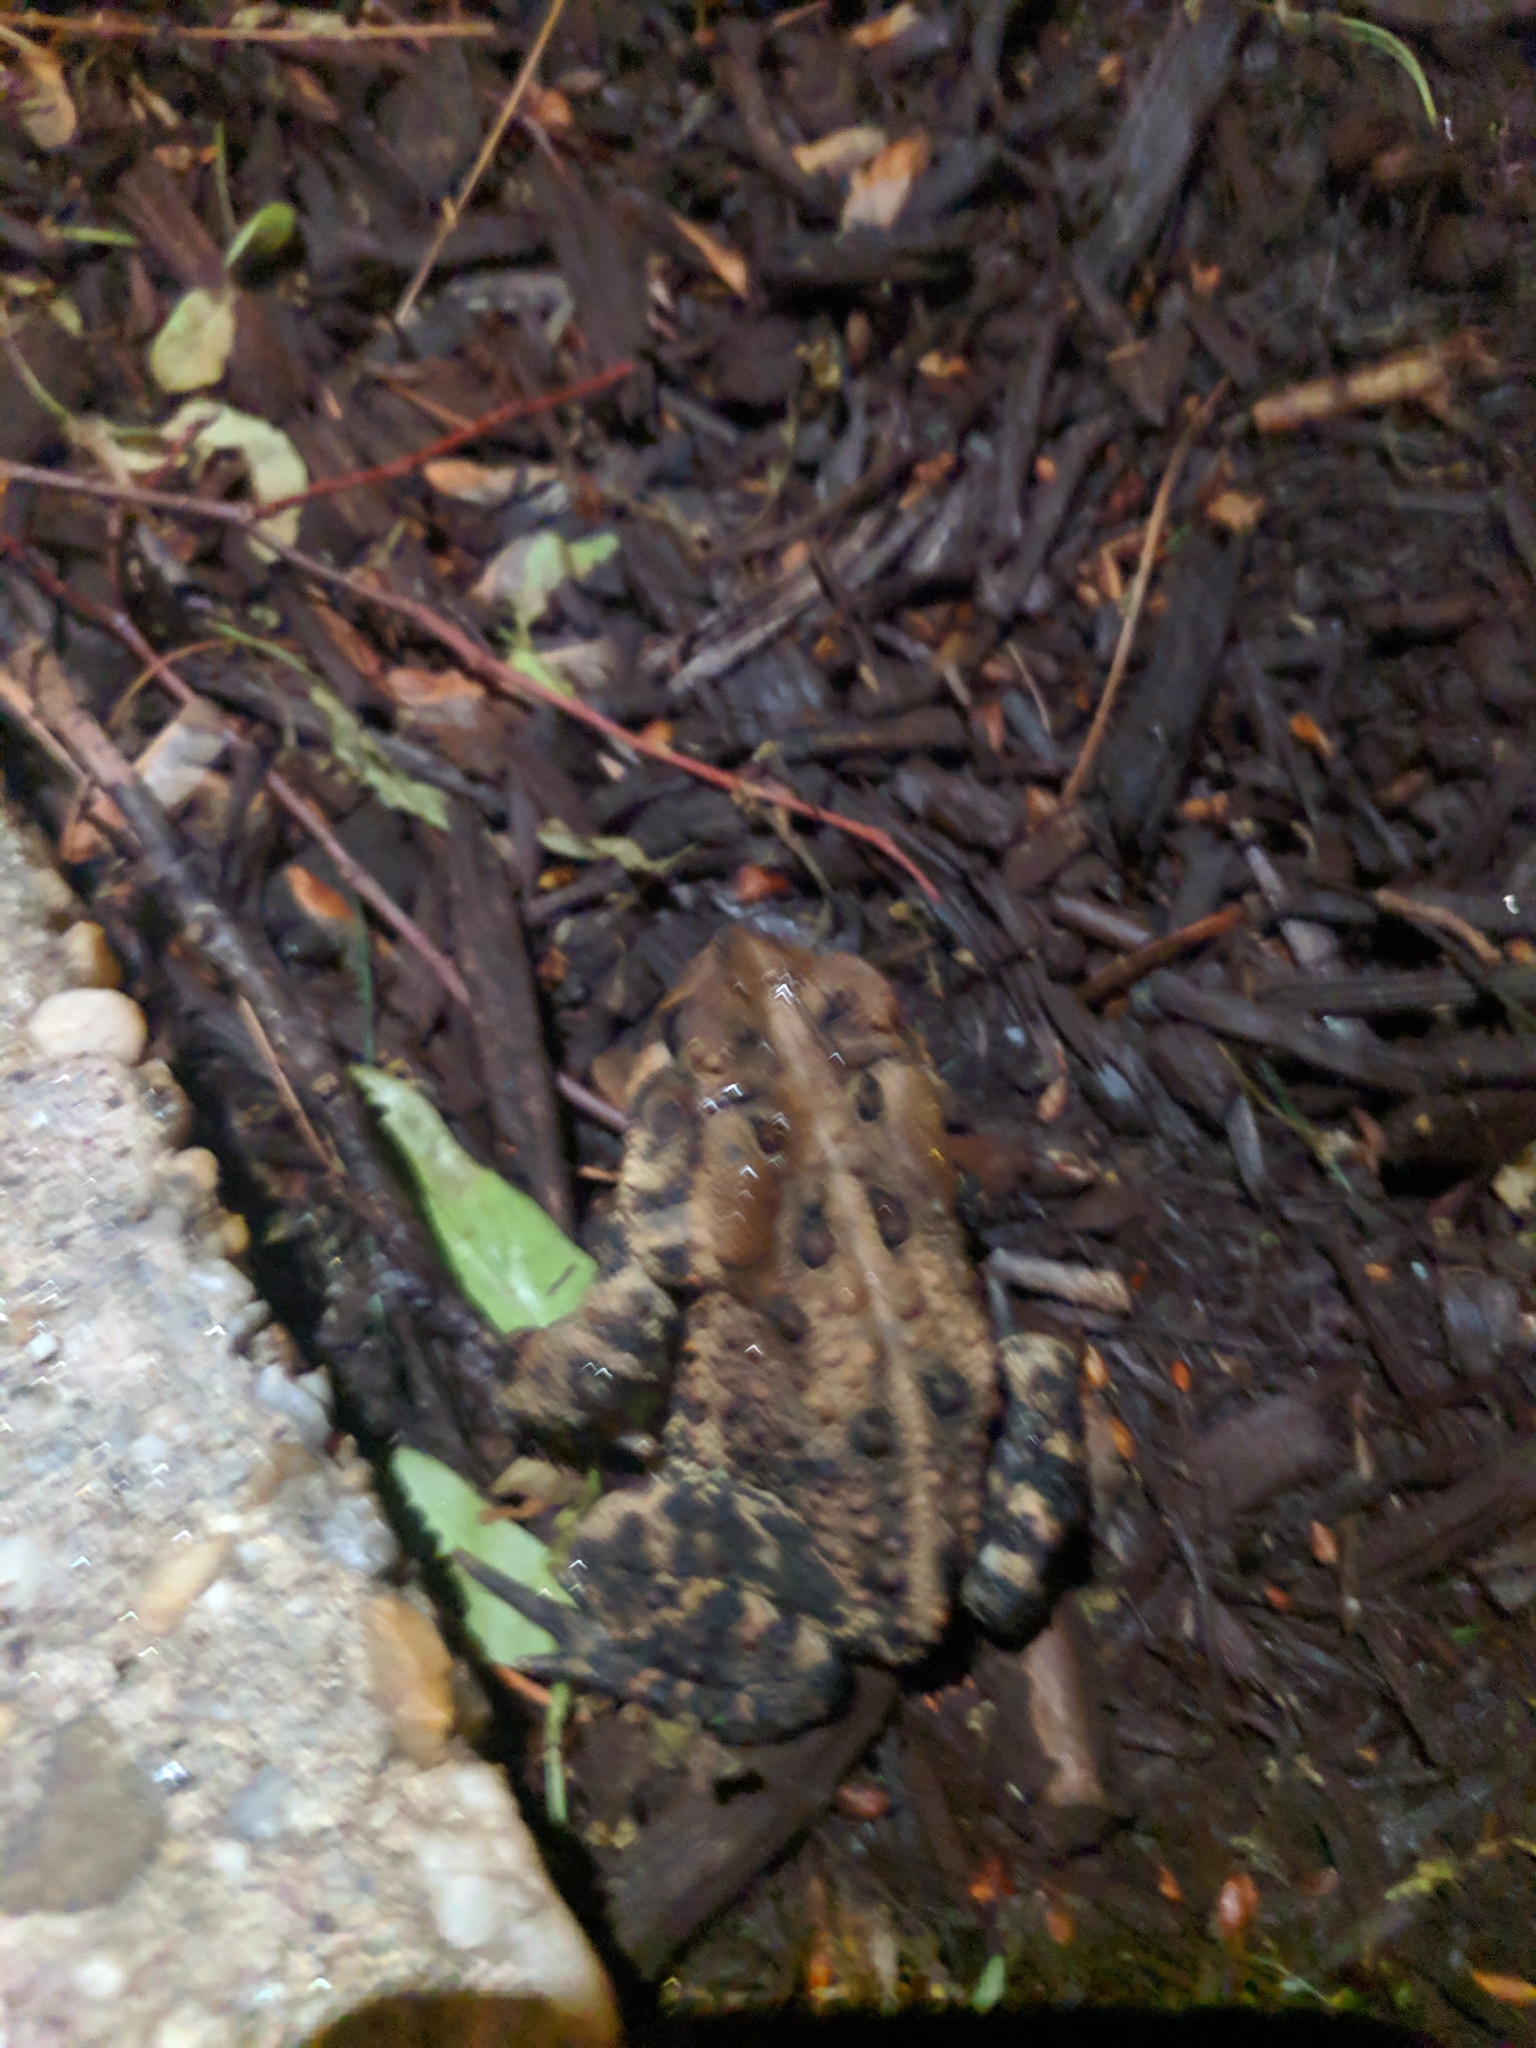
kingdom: Animalia
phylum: Chordata
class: Amphibia
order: Anura
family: Bufonidae
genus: Anaxyrus
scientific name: Anaxyrus americanus
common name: American toad
